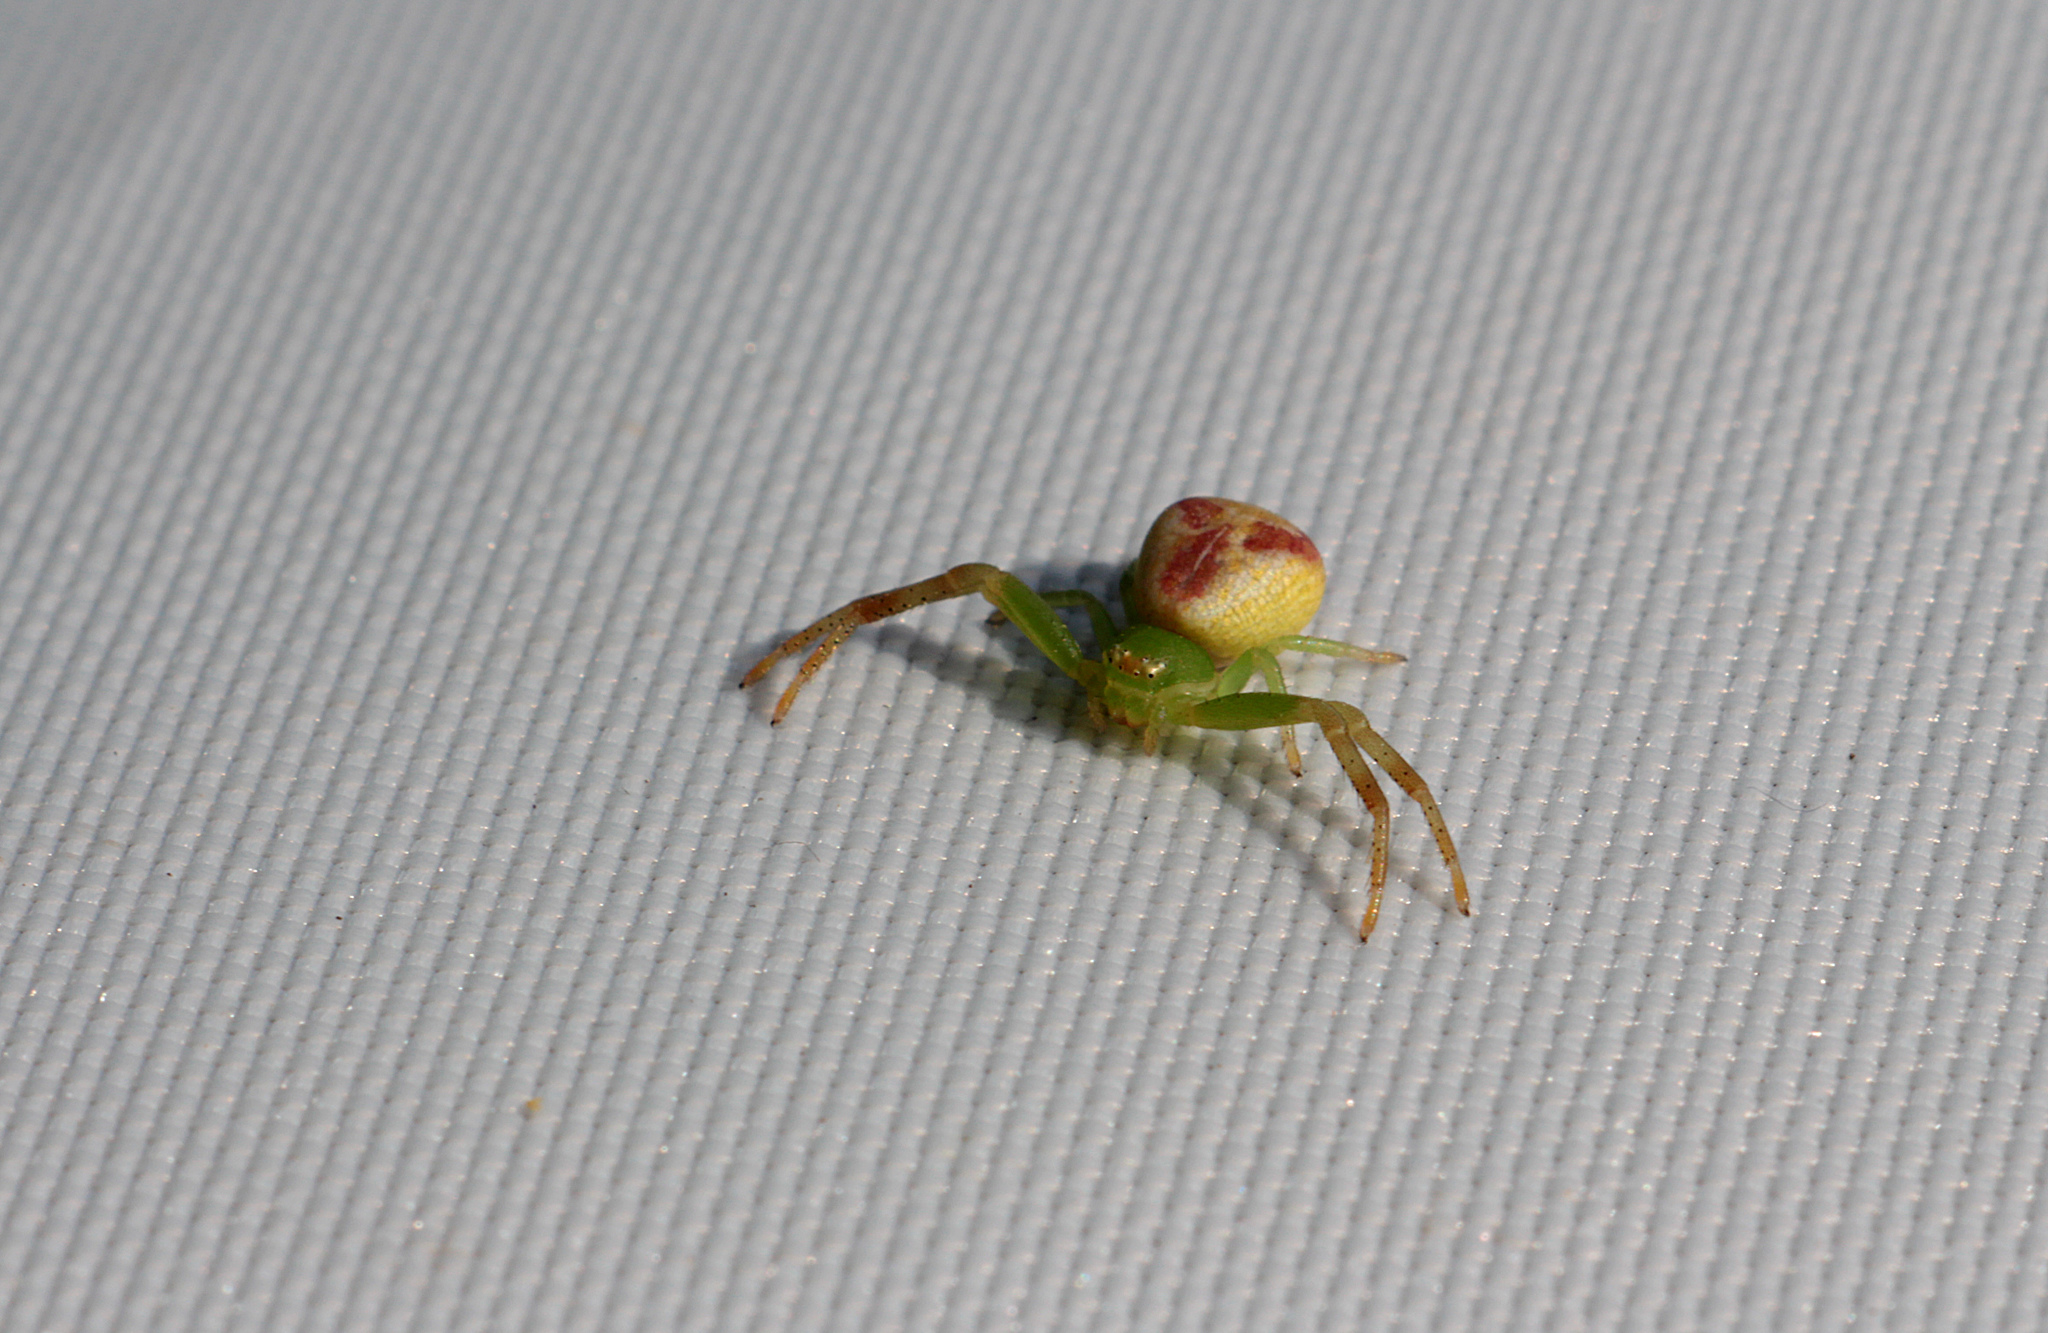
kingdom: Animalia
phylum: Arthropoda
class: Arachnida
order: Araneae
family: Thomisidae
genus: Ebrechtella
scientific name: Ebrechtella tricuspidata
